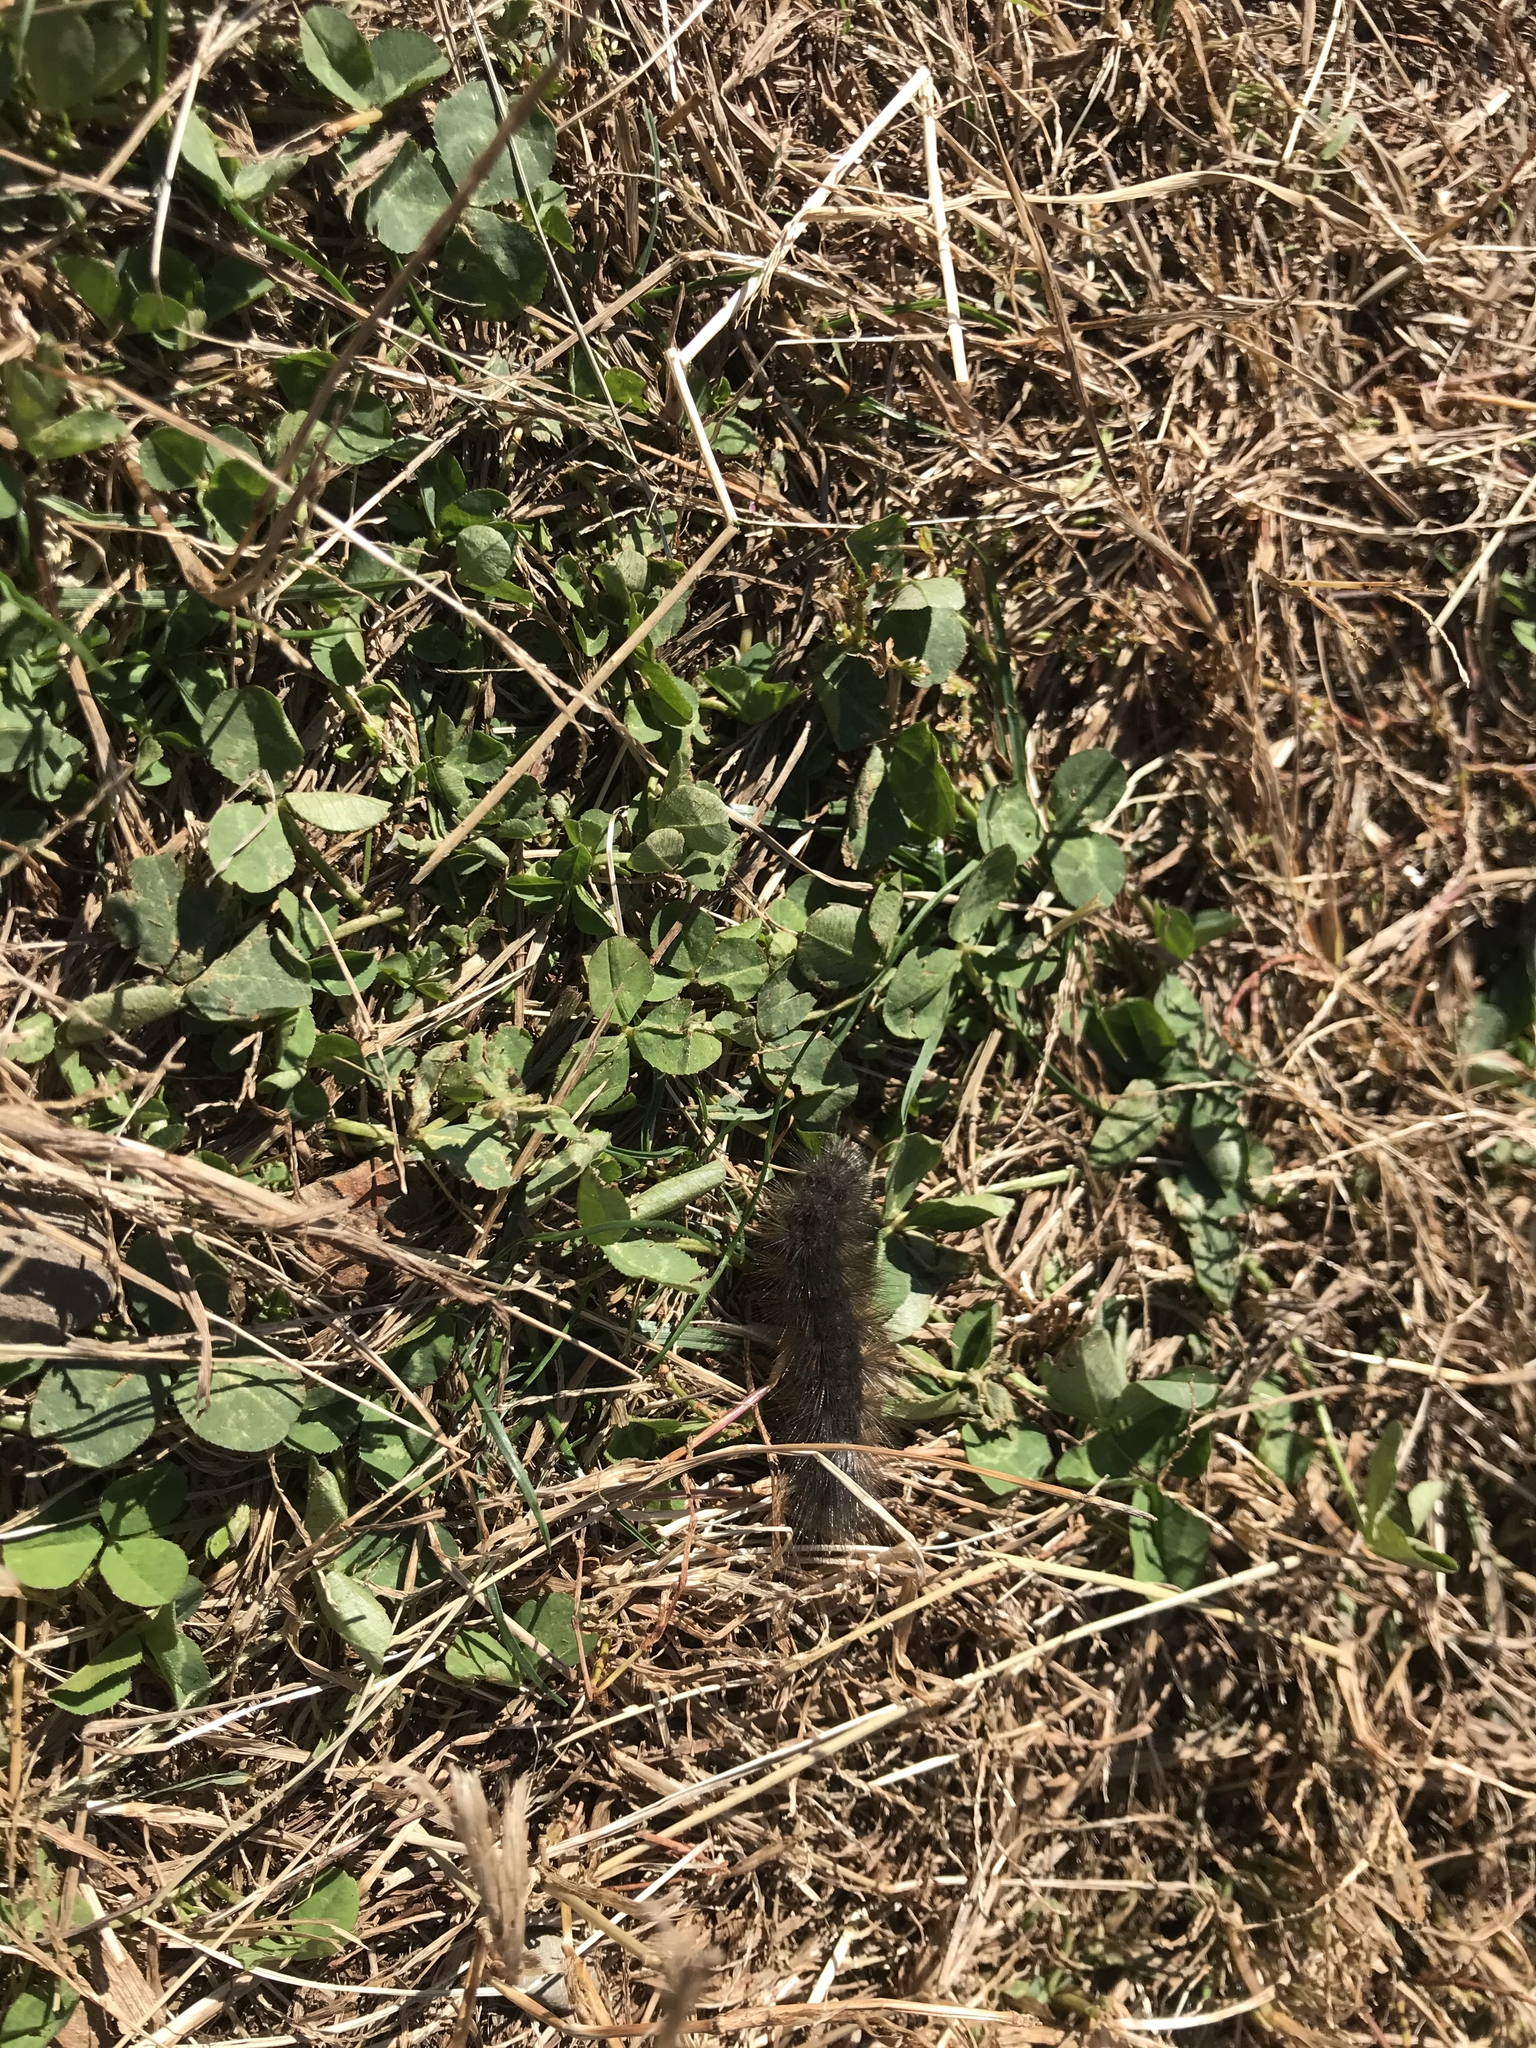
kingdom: Animalia
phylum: Arthropoda
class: Insecta
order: Lepidoptera
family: Erebidae
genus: Estigmene
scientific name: Estigmene acrea
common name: Salt marsh moth
